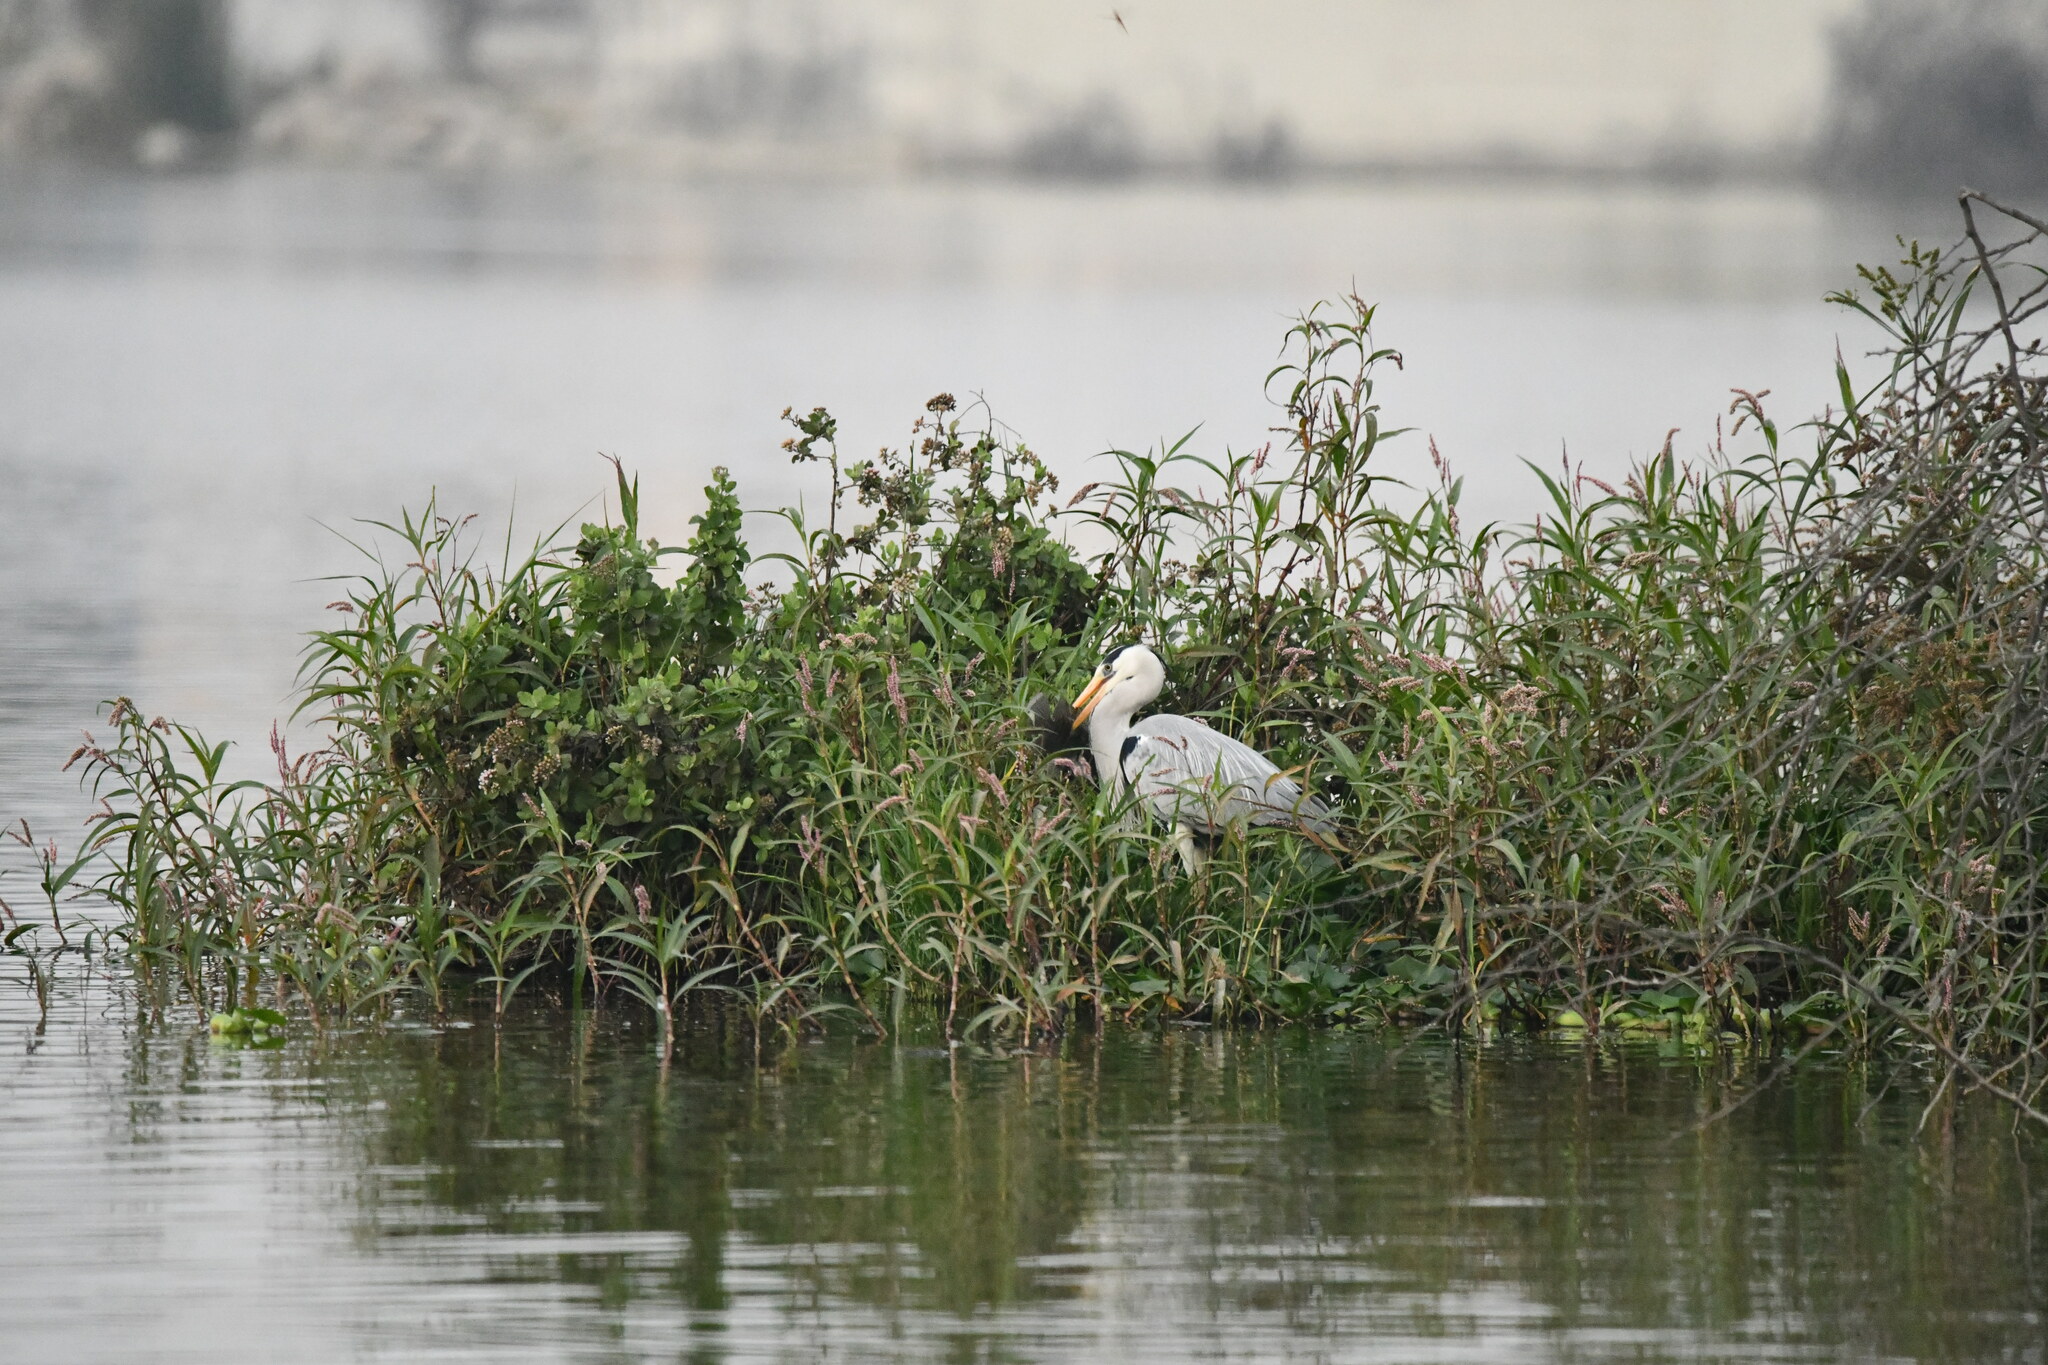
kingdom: Animalia
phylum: Chordata
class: Aves
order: Pelecaniformes
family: Ardeidae
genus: Ardea
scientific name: Ardea cinerea
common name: Grey heron
